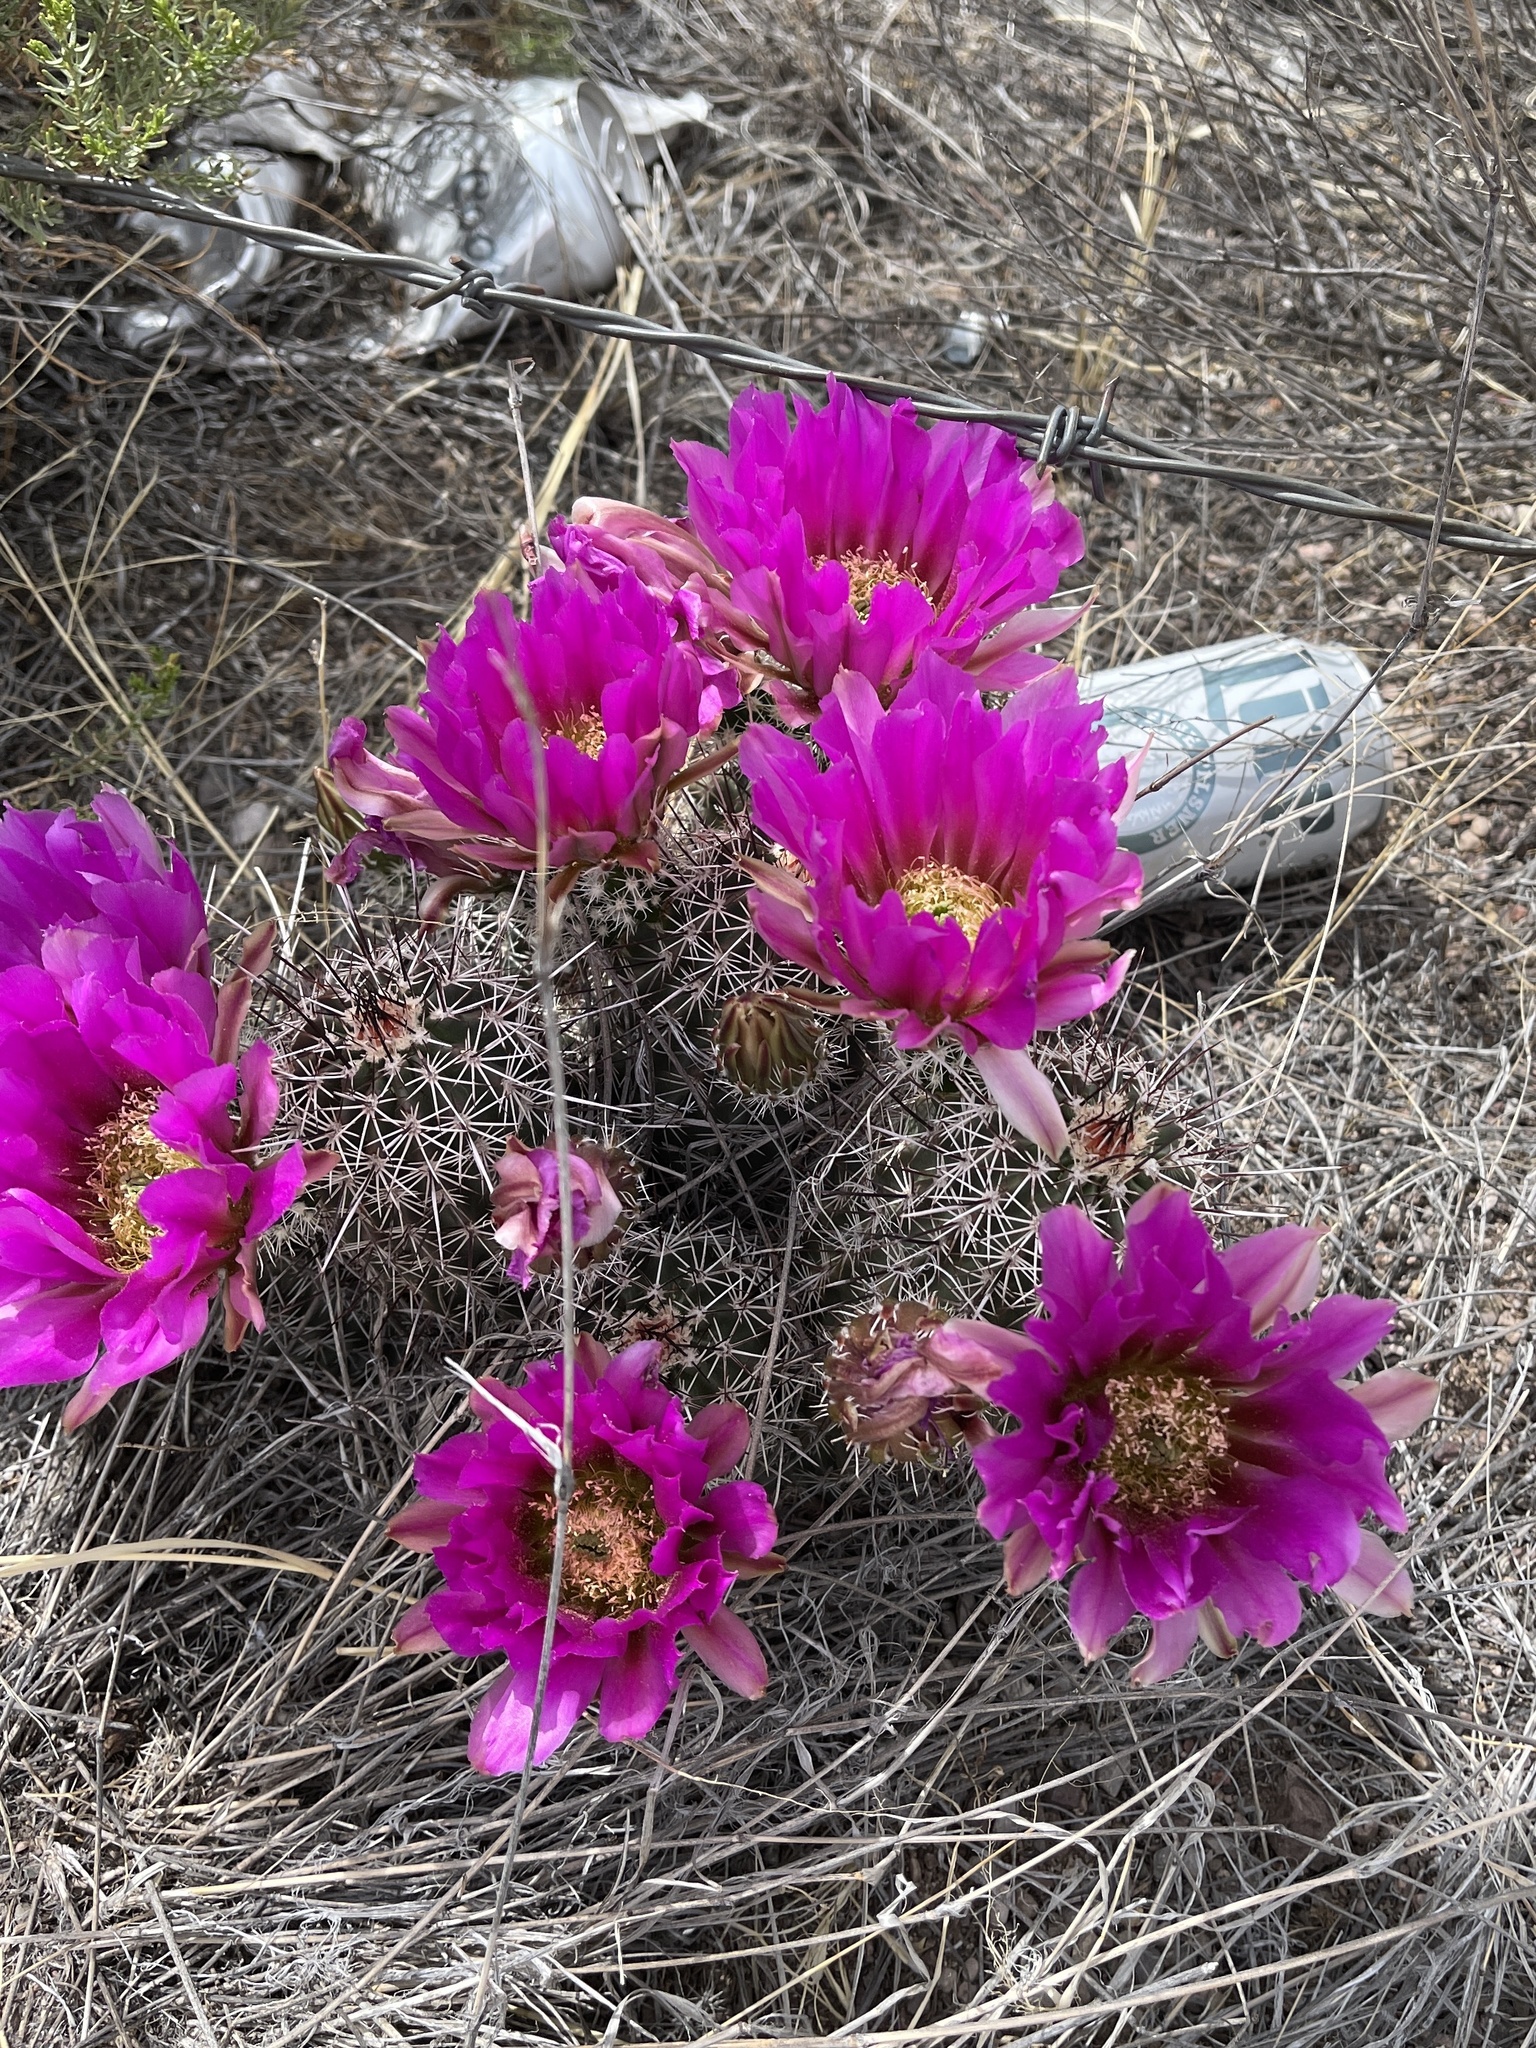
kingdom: Plantae
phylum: Tracheophyta
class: Magnoliopsida
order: Caryophyllales
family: Cactaceae
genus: Echinocereus
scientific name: Echinocereus fasciculatus
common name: Bundle hedgehog
